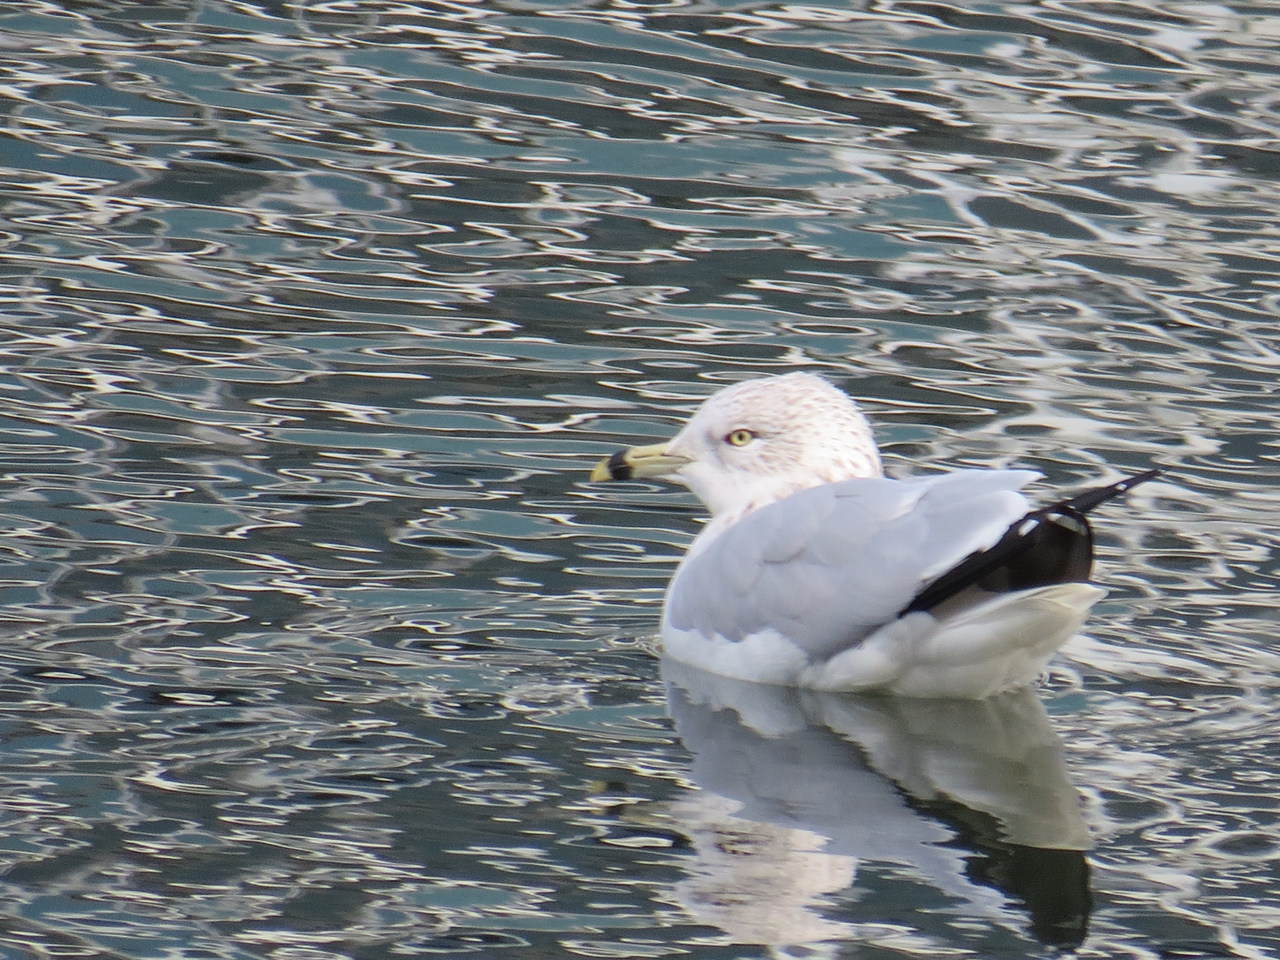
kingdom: Animalia
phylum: Chordata
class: Aves
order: Charadriiformes
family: Laridae
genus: Larus
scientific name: Larus delawarensis
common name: Ring-billed gull
